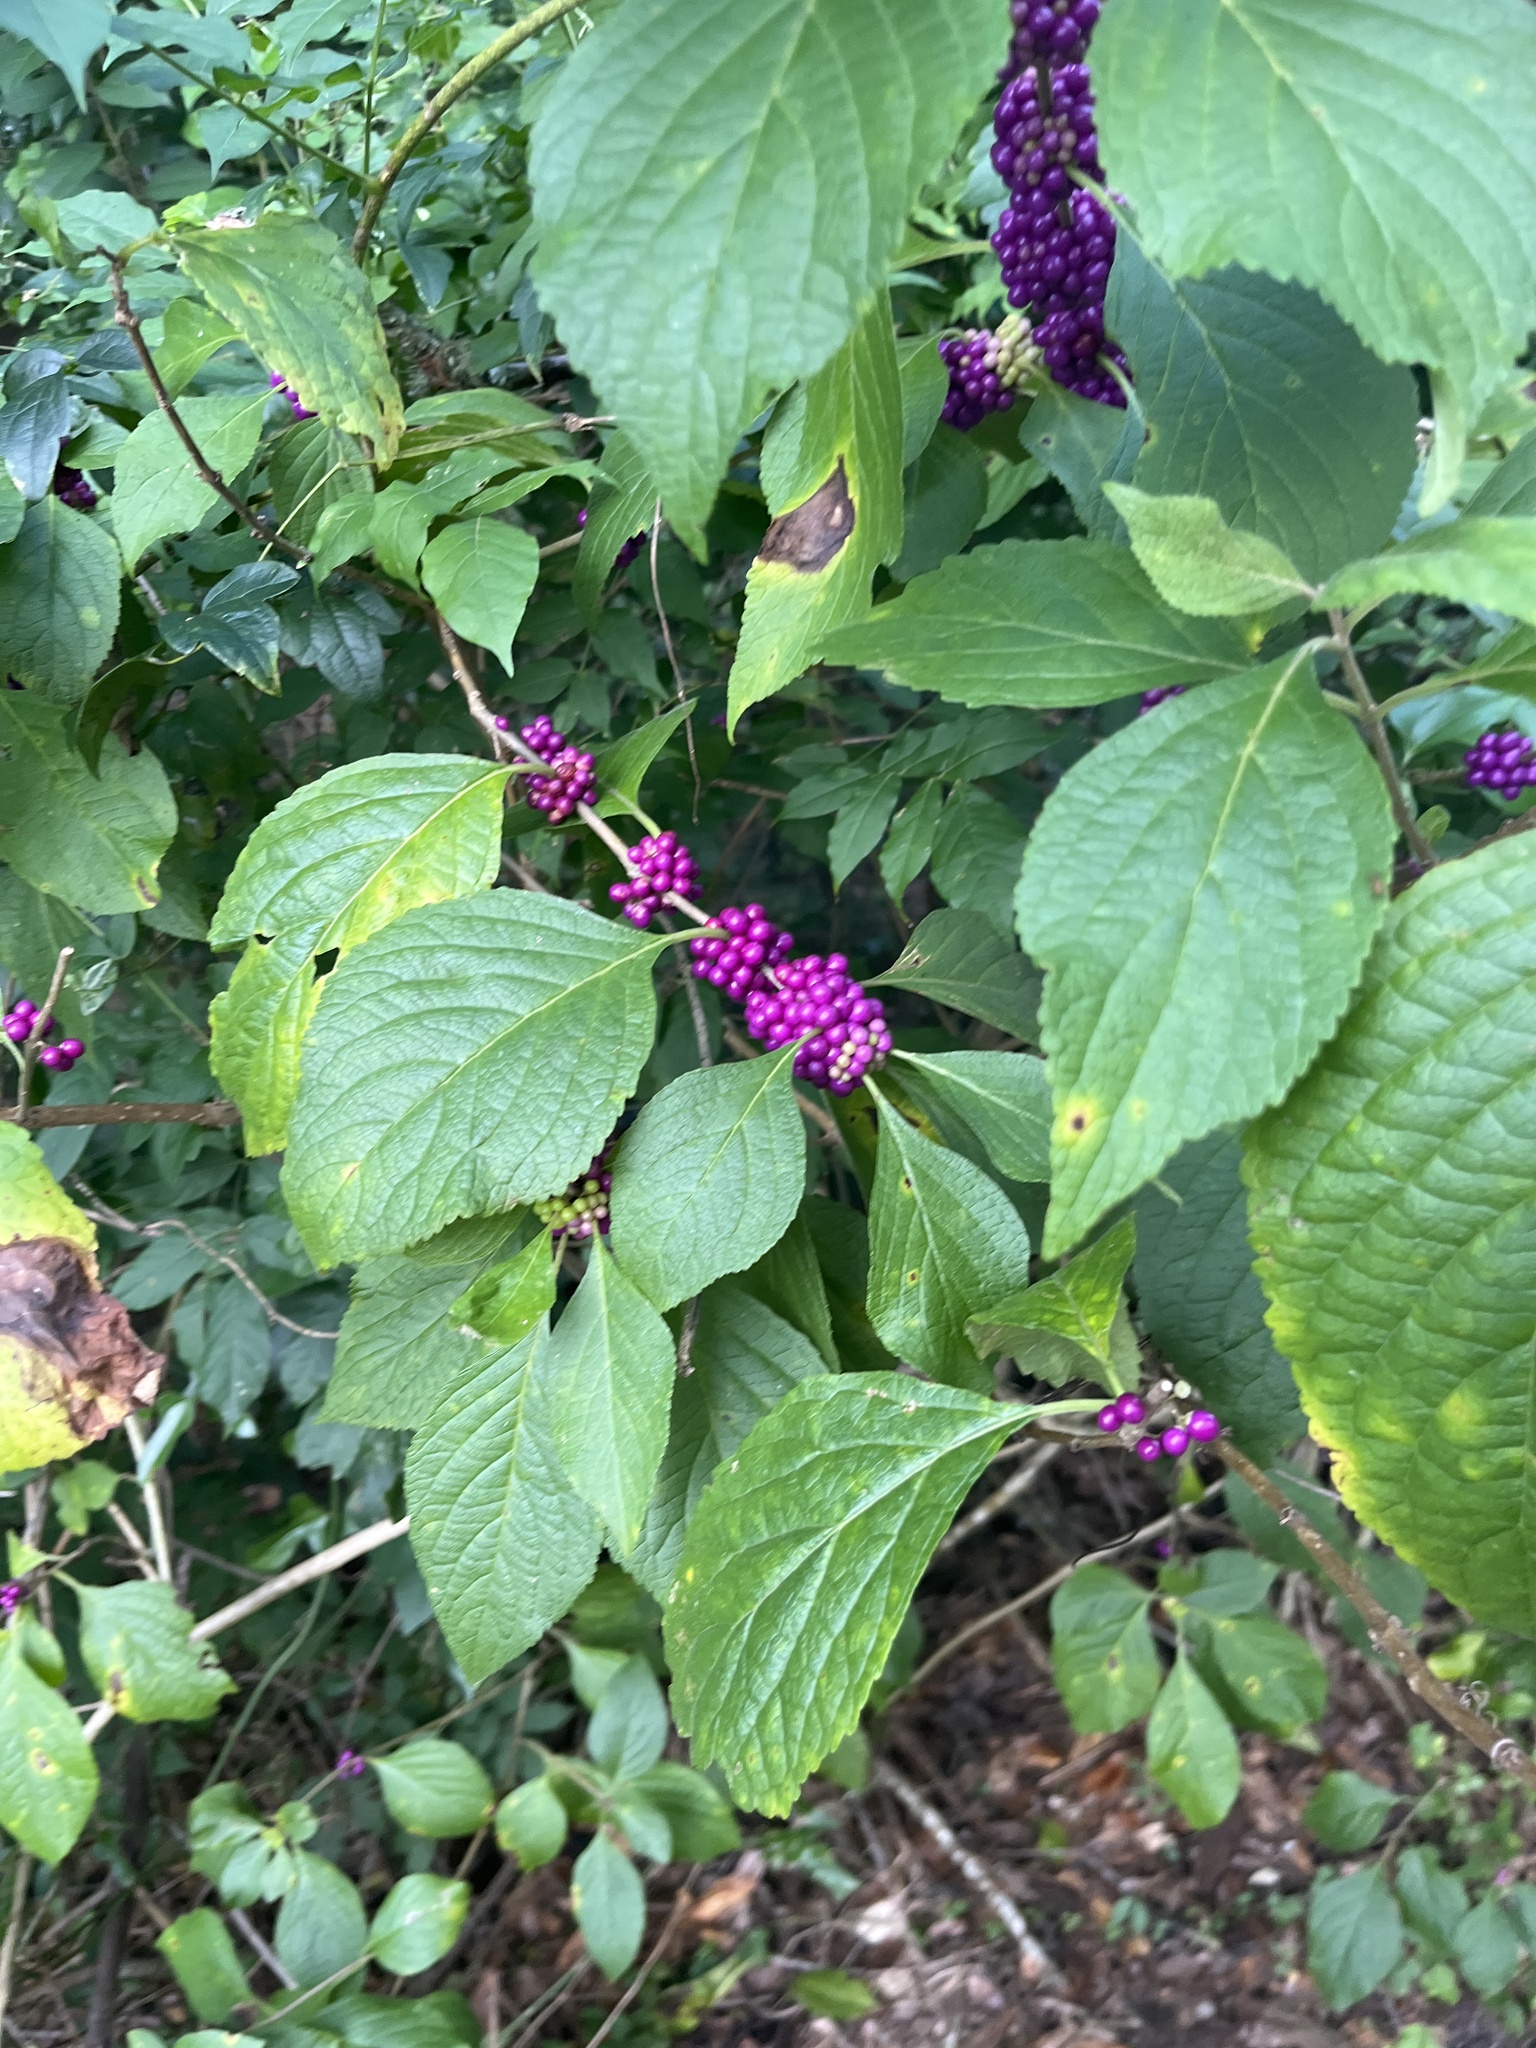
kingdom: Plantae
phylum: Tracheophyta
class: Magnoliopsida
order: Lamiales
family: Lamiaceae
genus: Callicarpa
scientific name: Callicarpa americana
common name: American beautyberry
